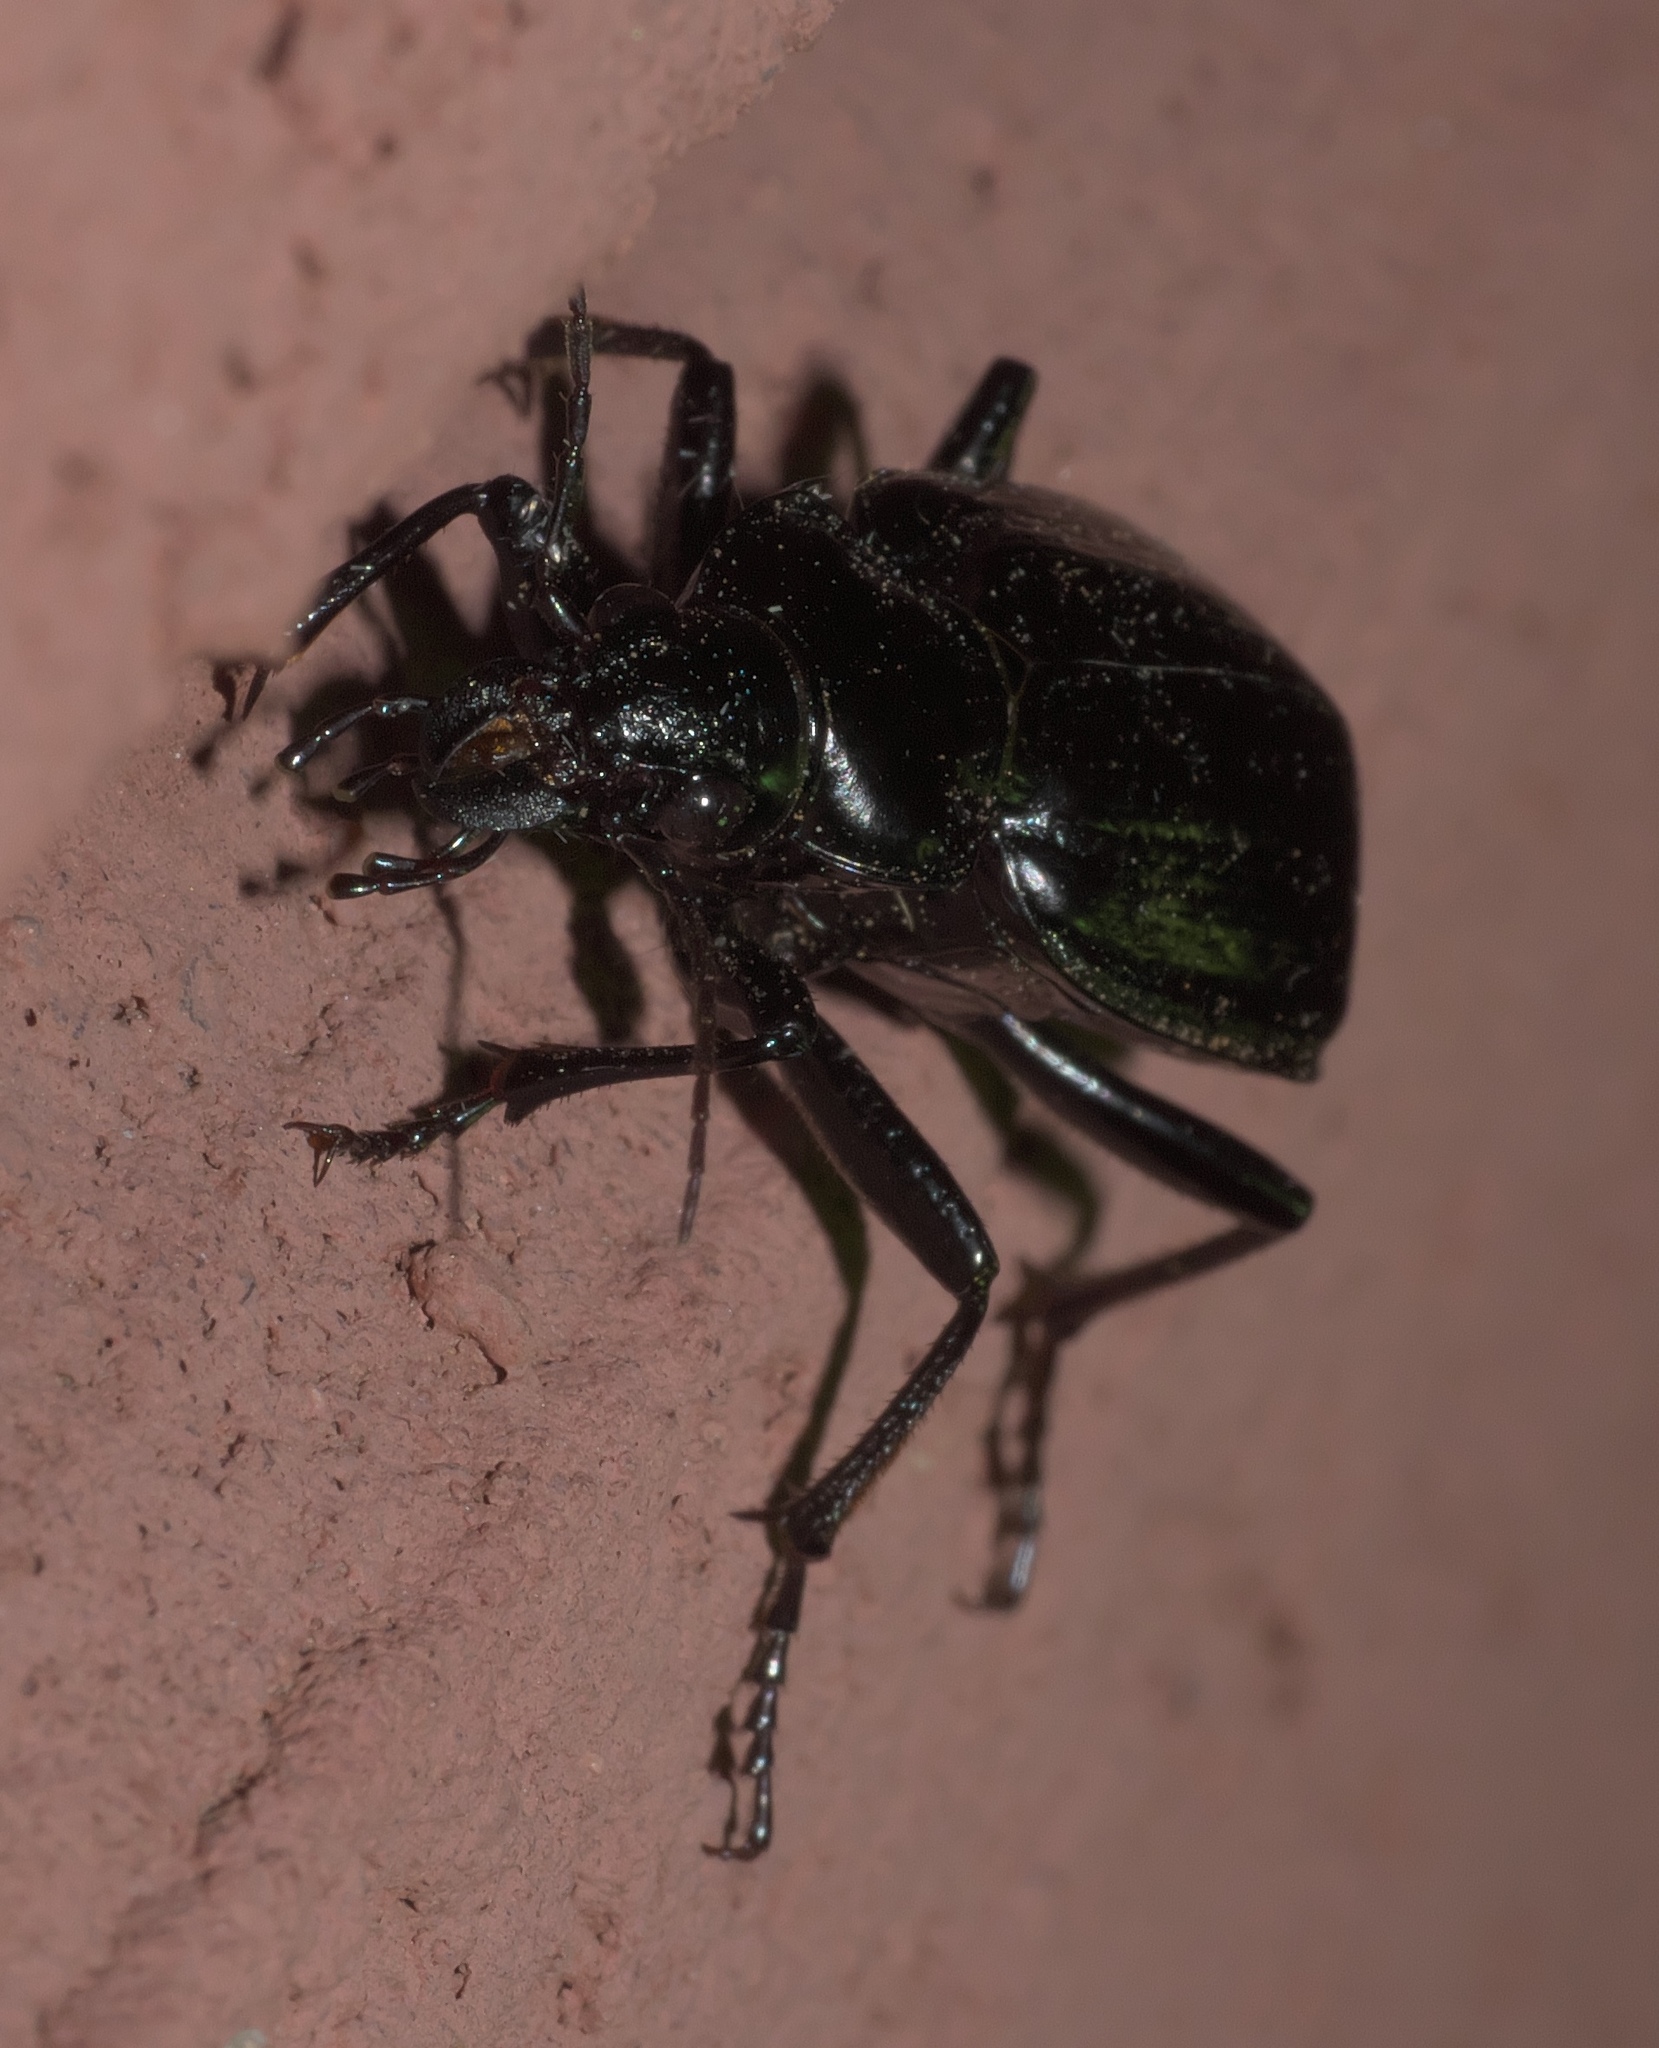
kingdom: Animalia
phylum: Arthropoda
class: Insecta
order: Coleoptera
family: Carabidae
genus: Calosoma
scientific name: Calosoma marginale
